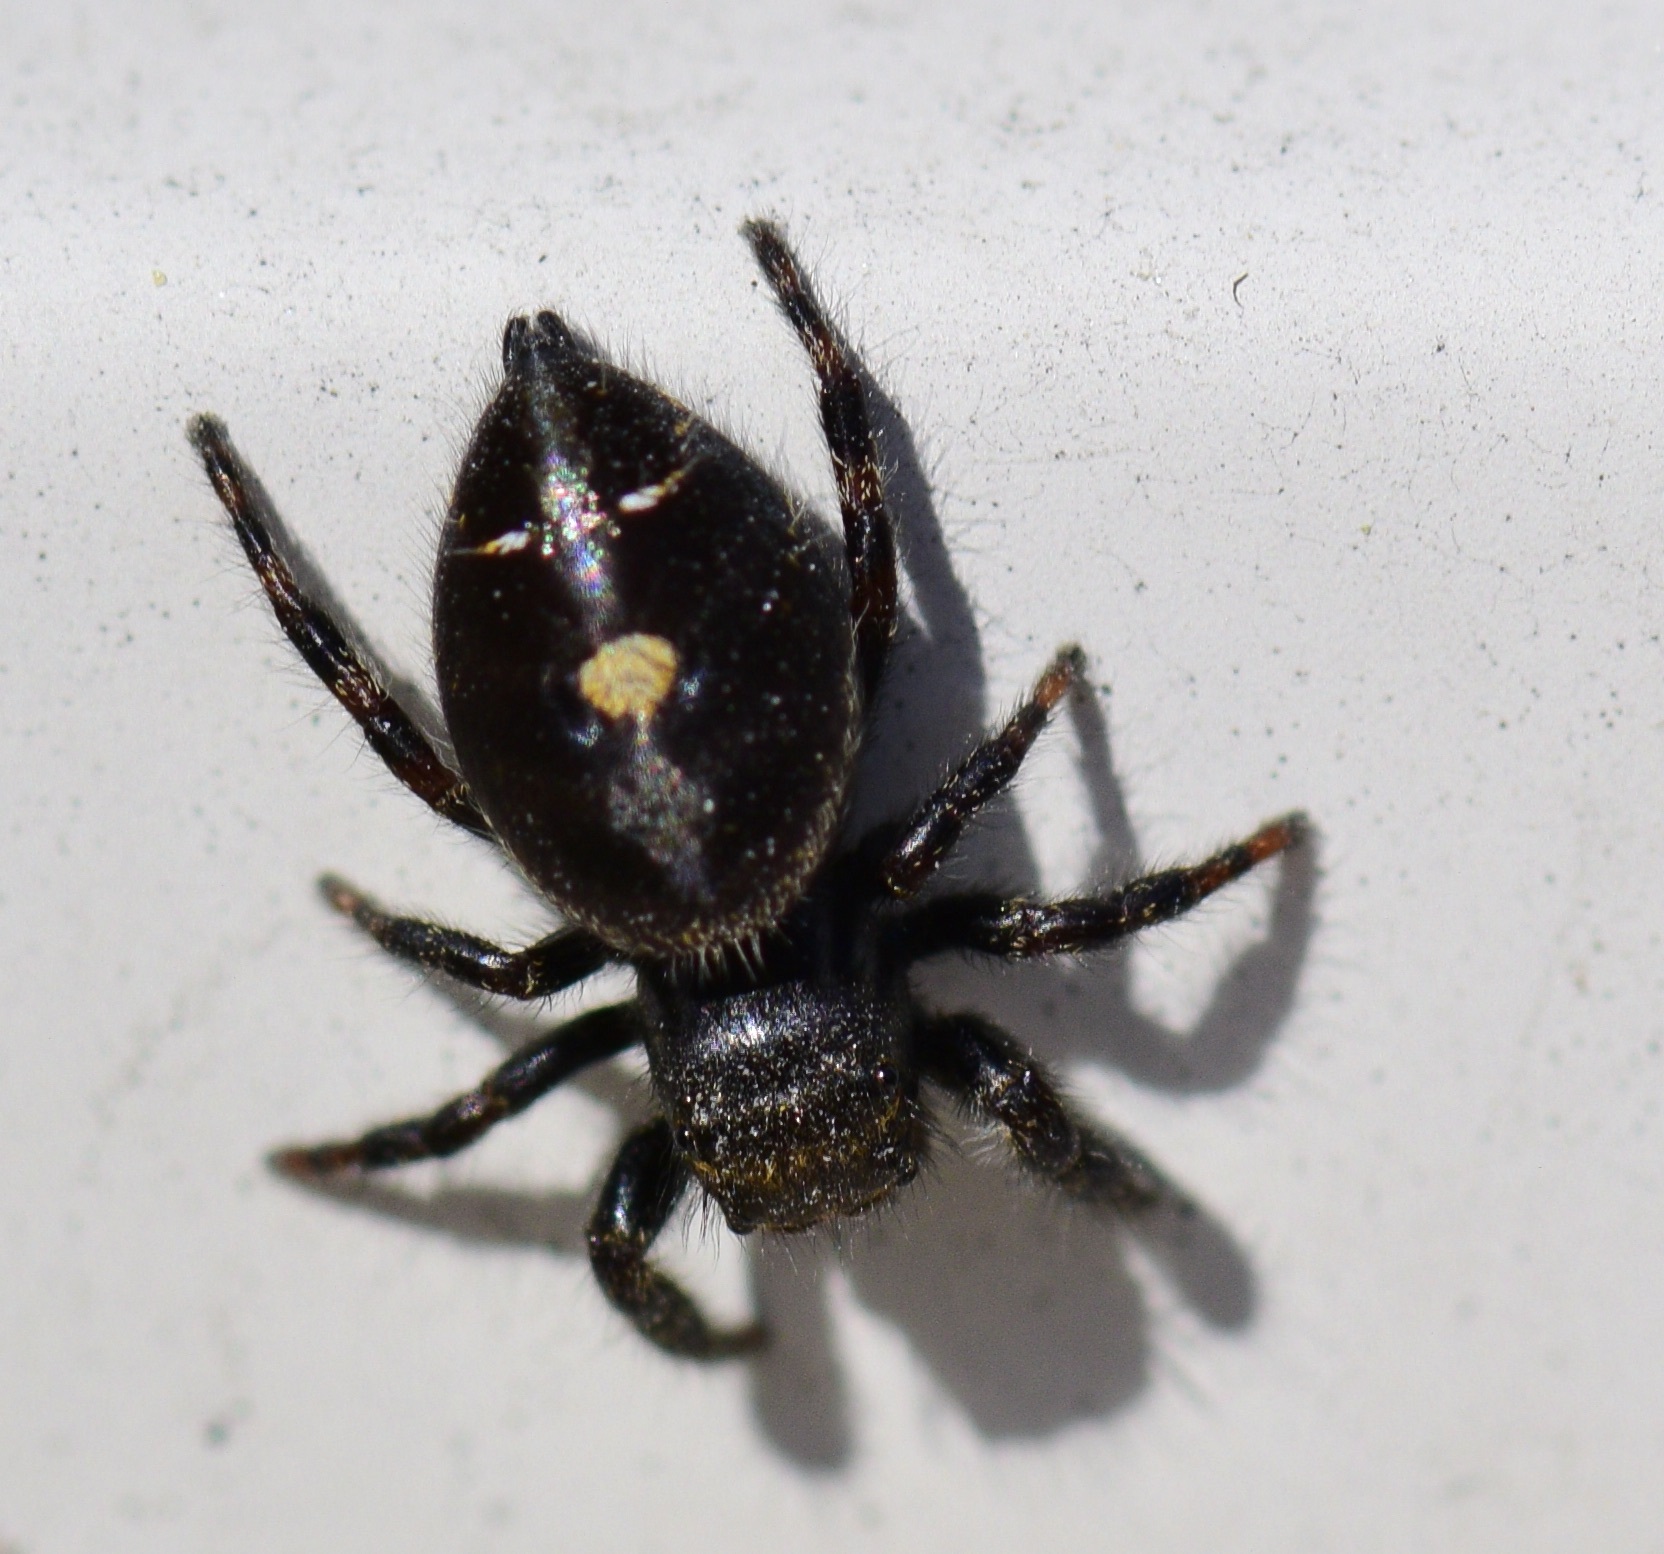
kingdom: Animalia
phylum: Arthropoda
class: Arachnida
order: Araneae
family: Salticidae
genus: Phidippus
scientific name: Phidippus audax
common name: Bold jumper
